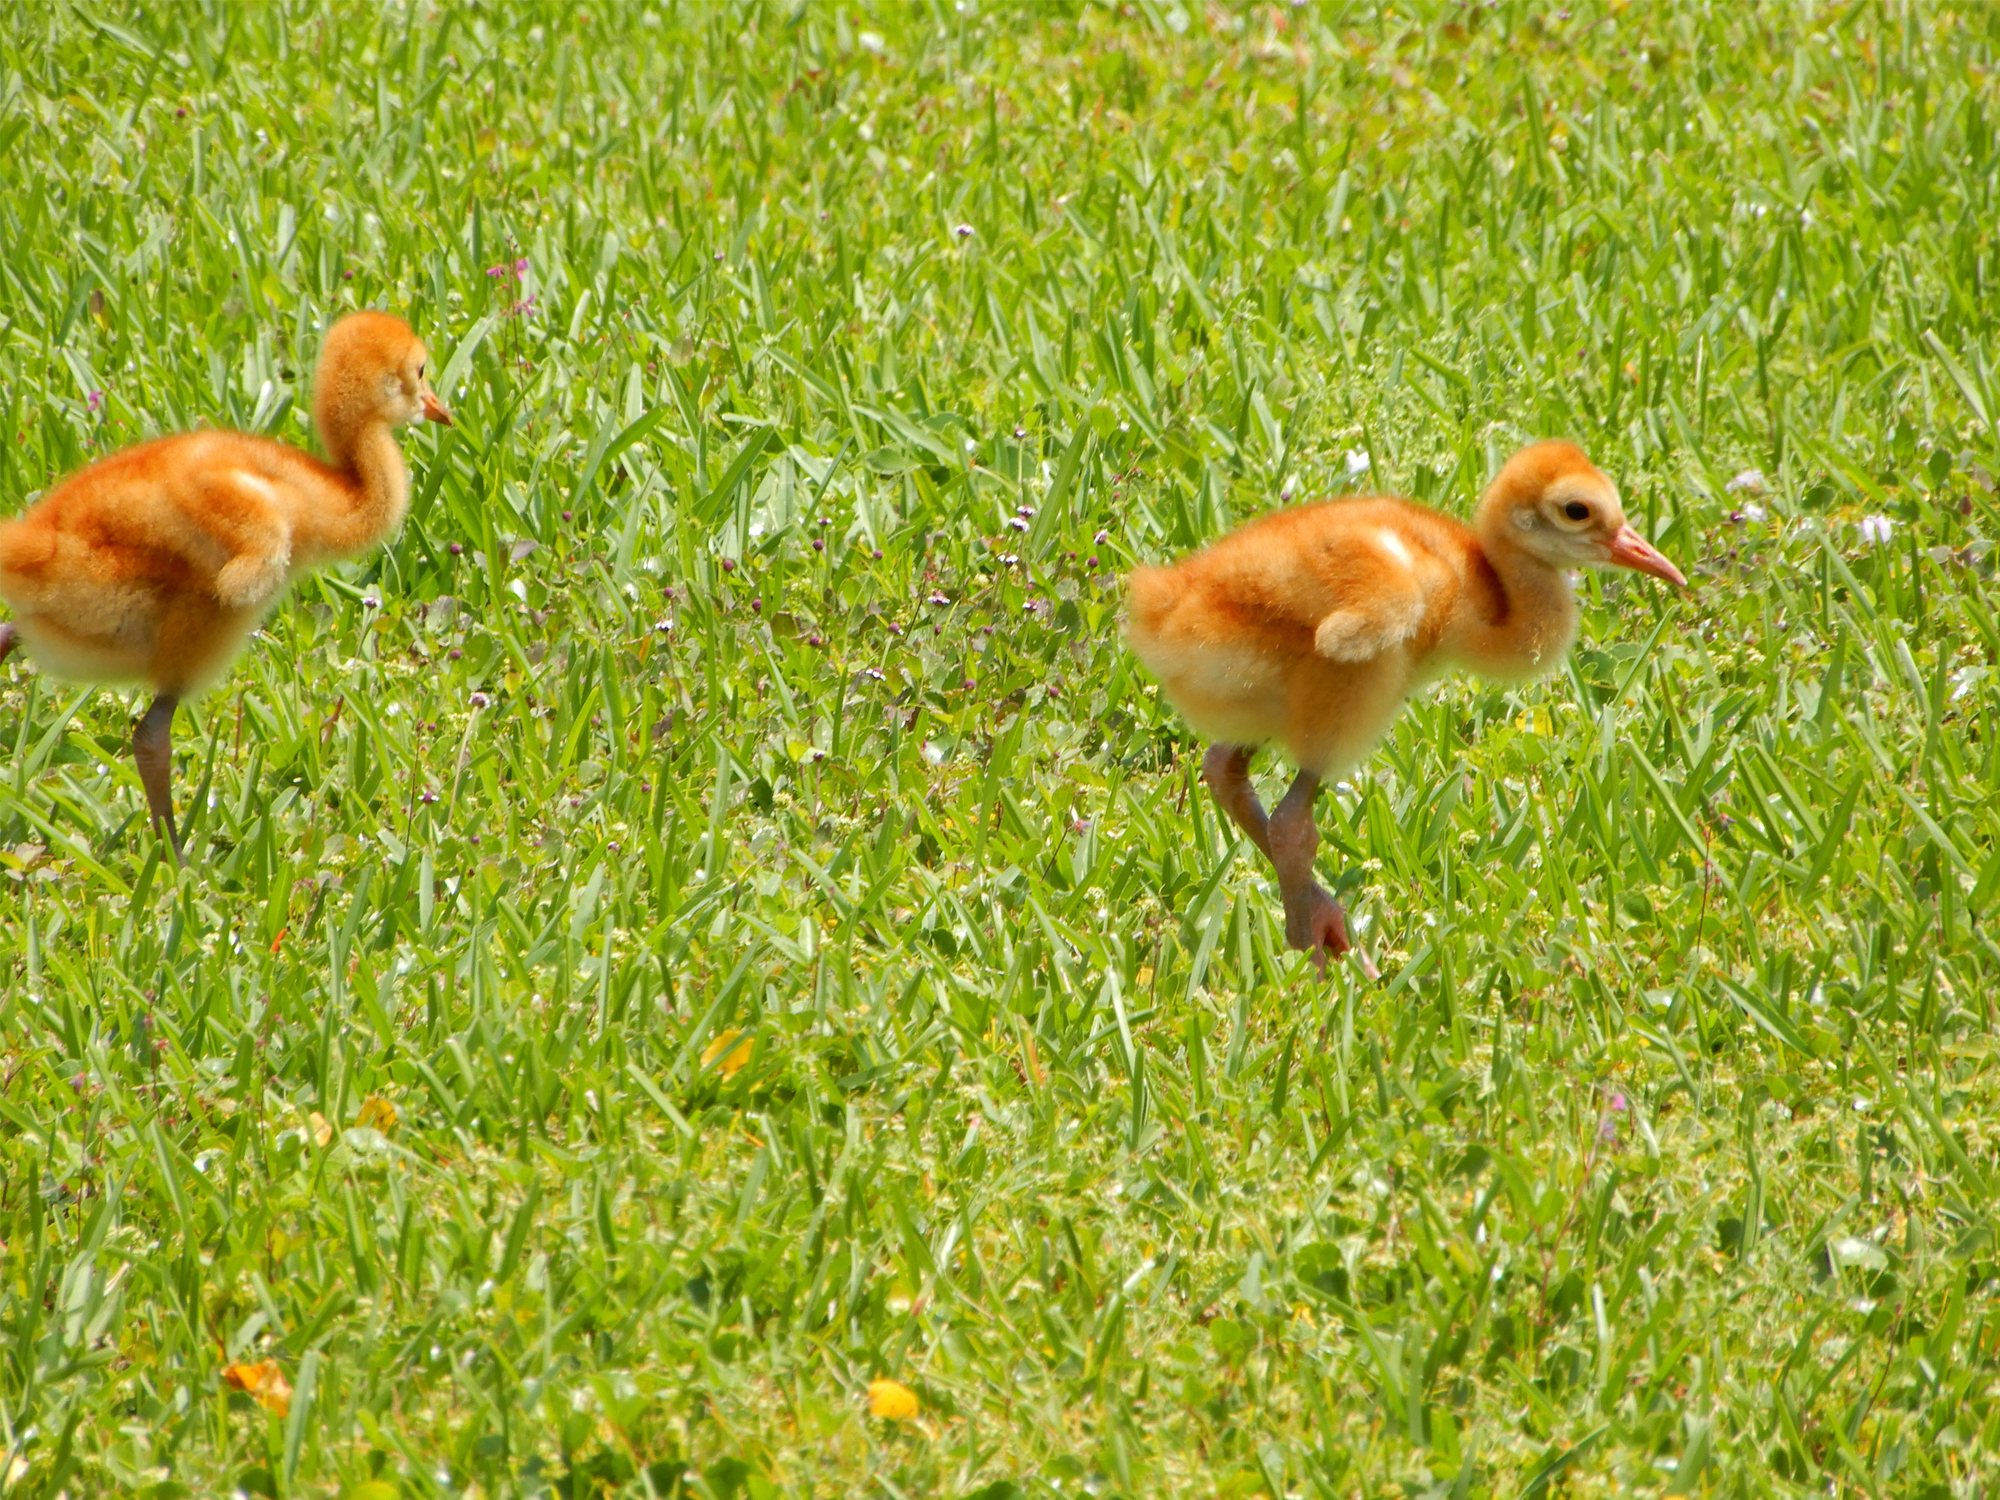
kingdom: Animalia
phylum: Chordata
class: Aves
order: Gruiformes
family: Gruidae
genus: Grus
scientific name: Grus canadensis
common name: Sandhill crane
